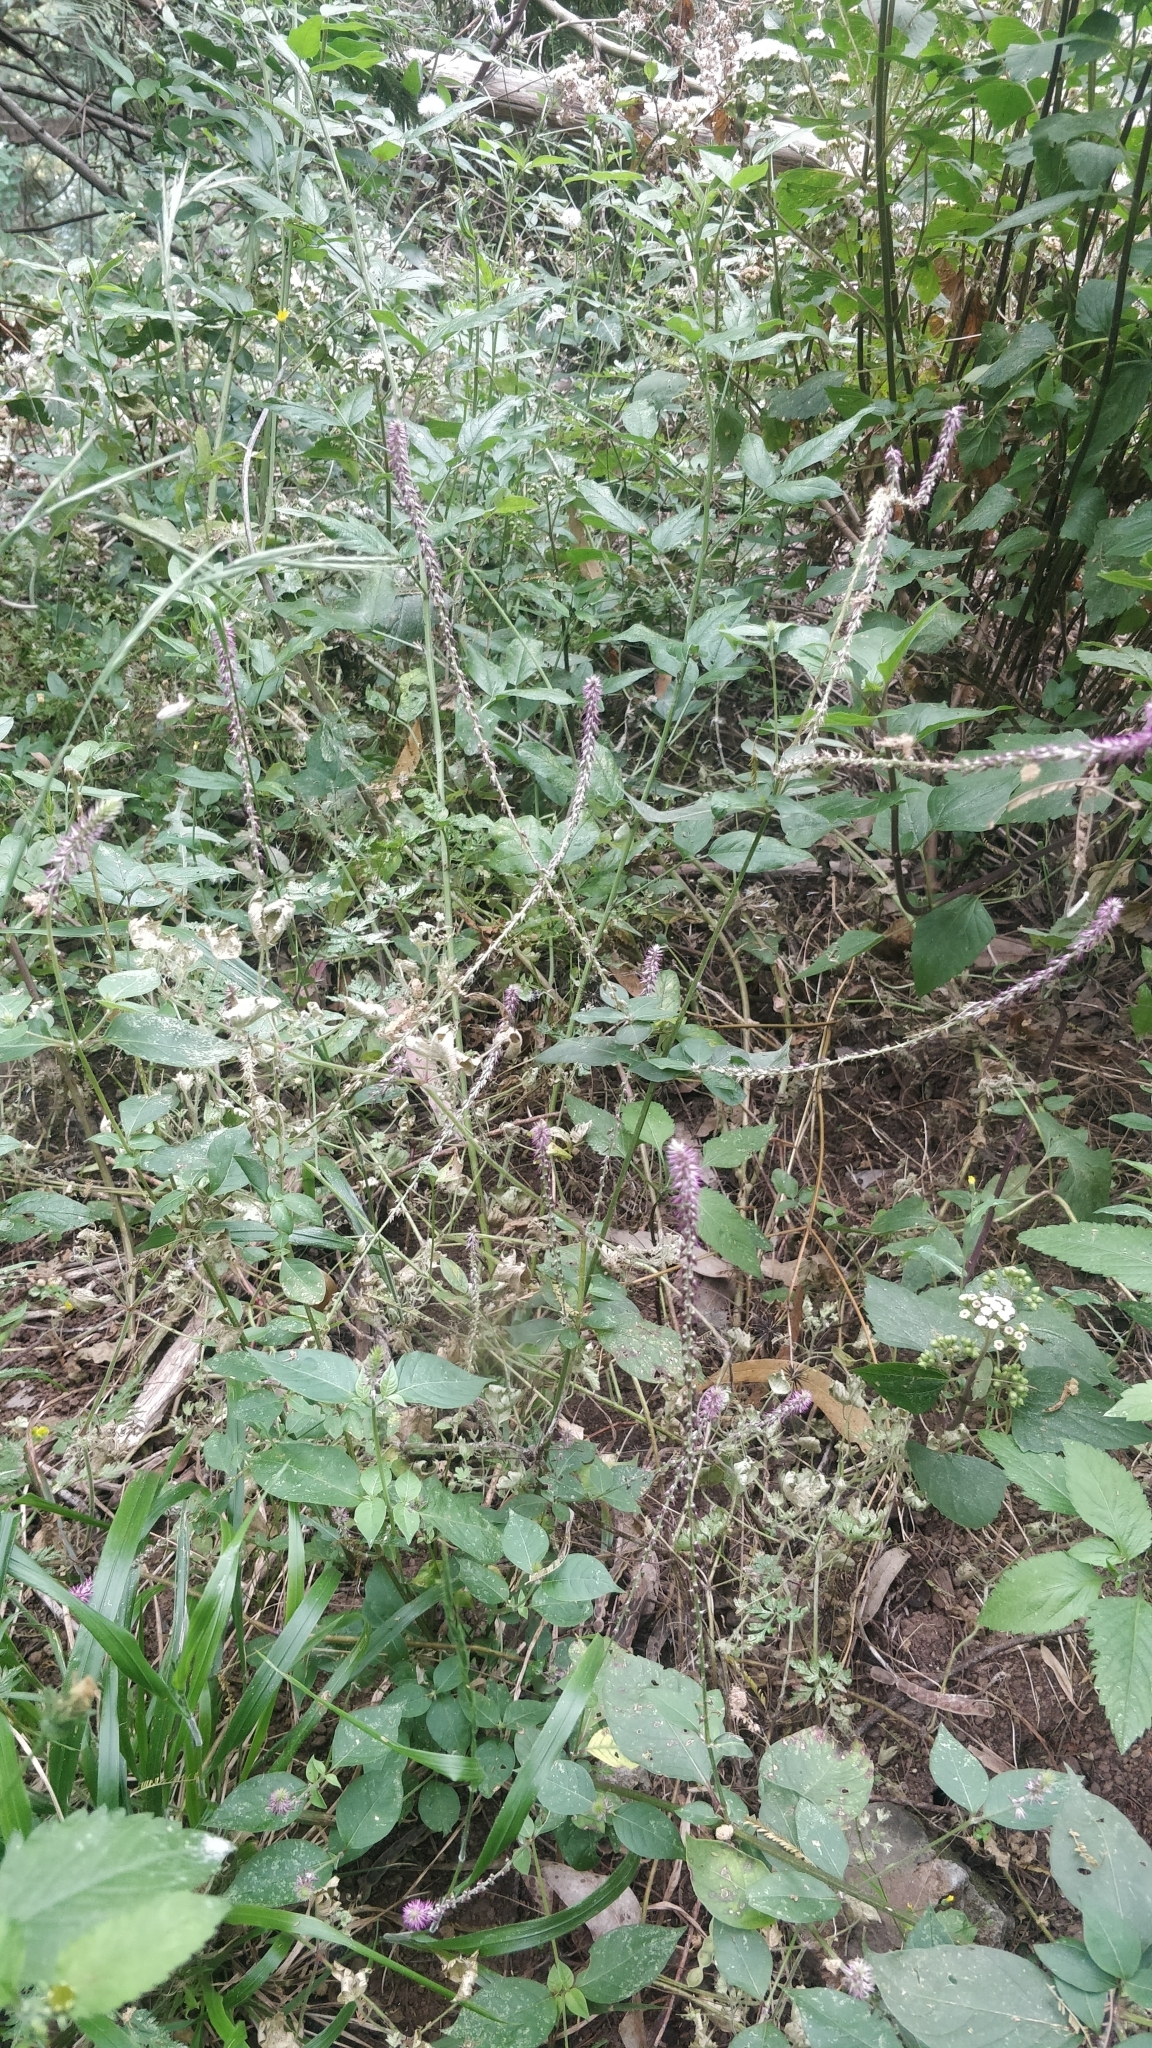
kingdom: Plantae
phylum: Tracheophyta
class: Magnoliopsida
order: Caryophyllales
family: Amaranthaceae
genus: Achyranthes
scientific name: Achyranthes aspera
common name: Devil's horsewhip
